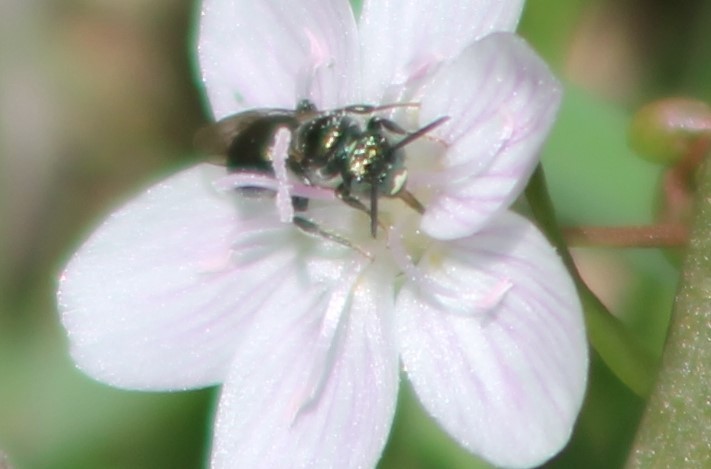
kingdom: Animalia
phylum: Arthropoda
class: Insecta
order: Hymenoptera
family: Apidae
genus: Zadontomerus
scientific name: Zadontomerus
